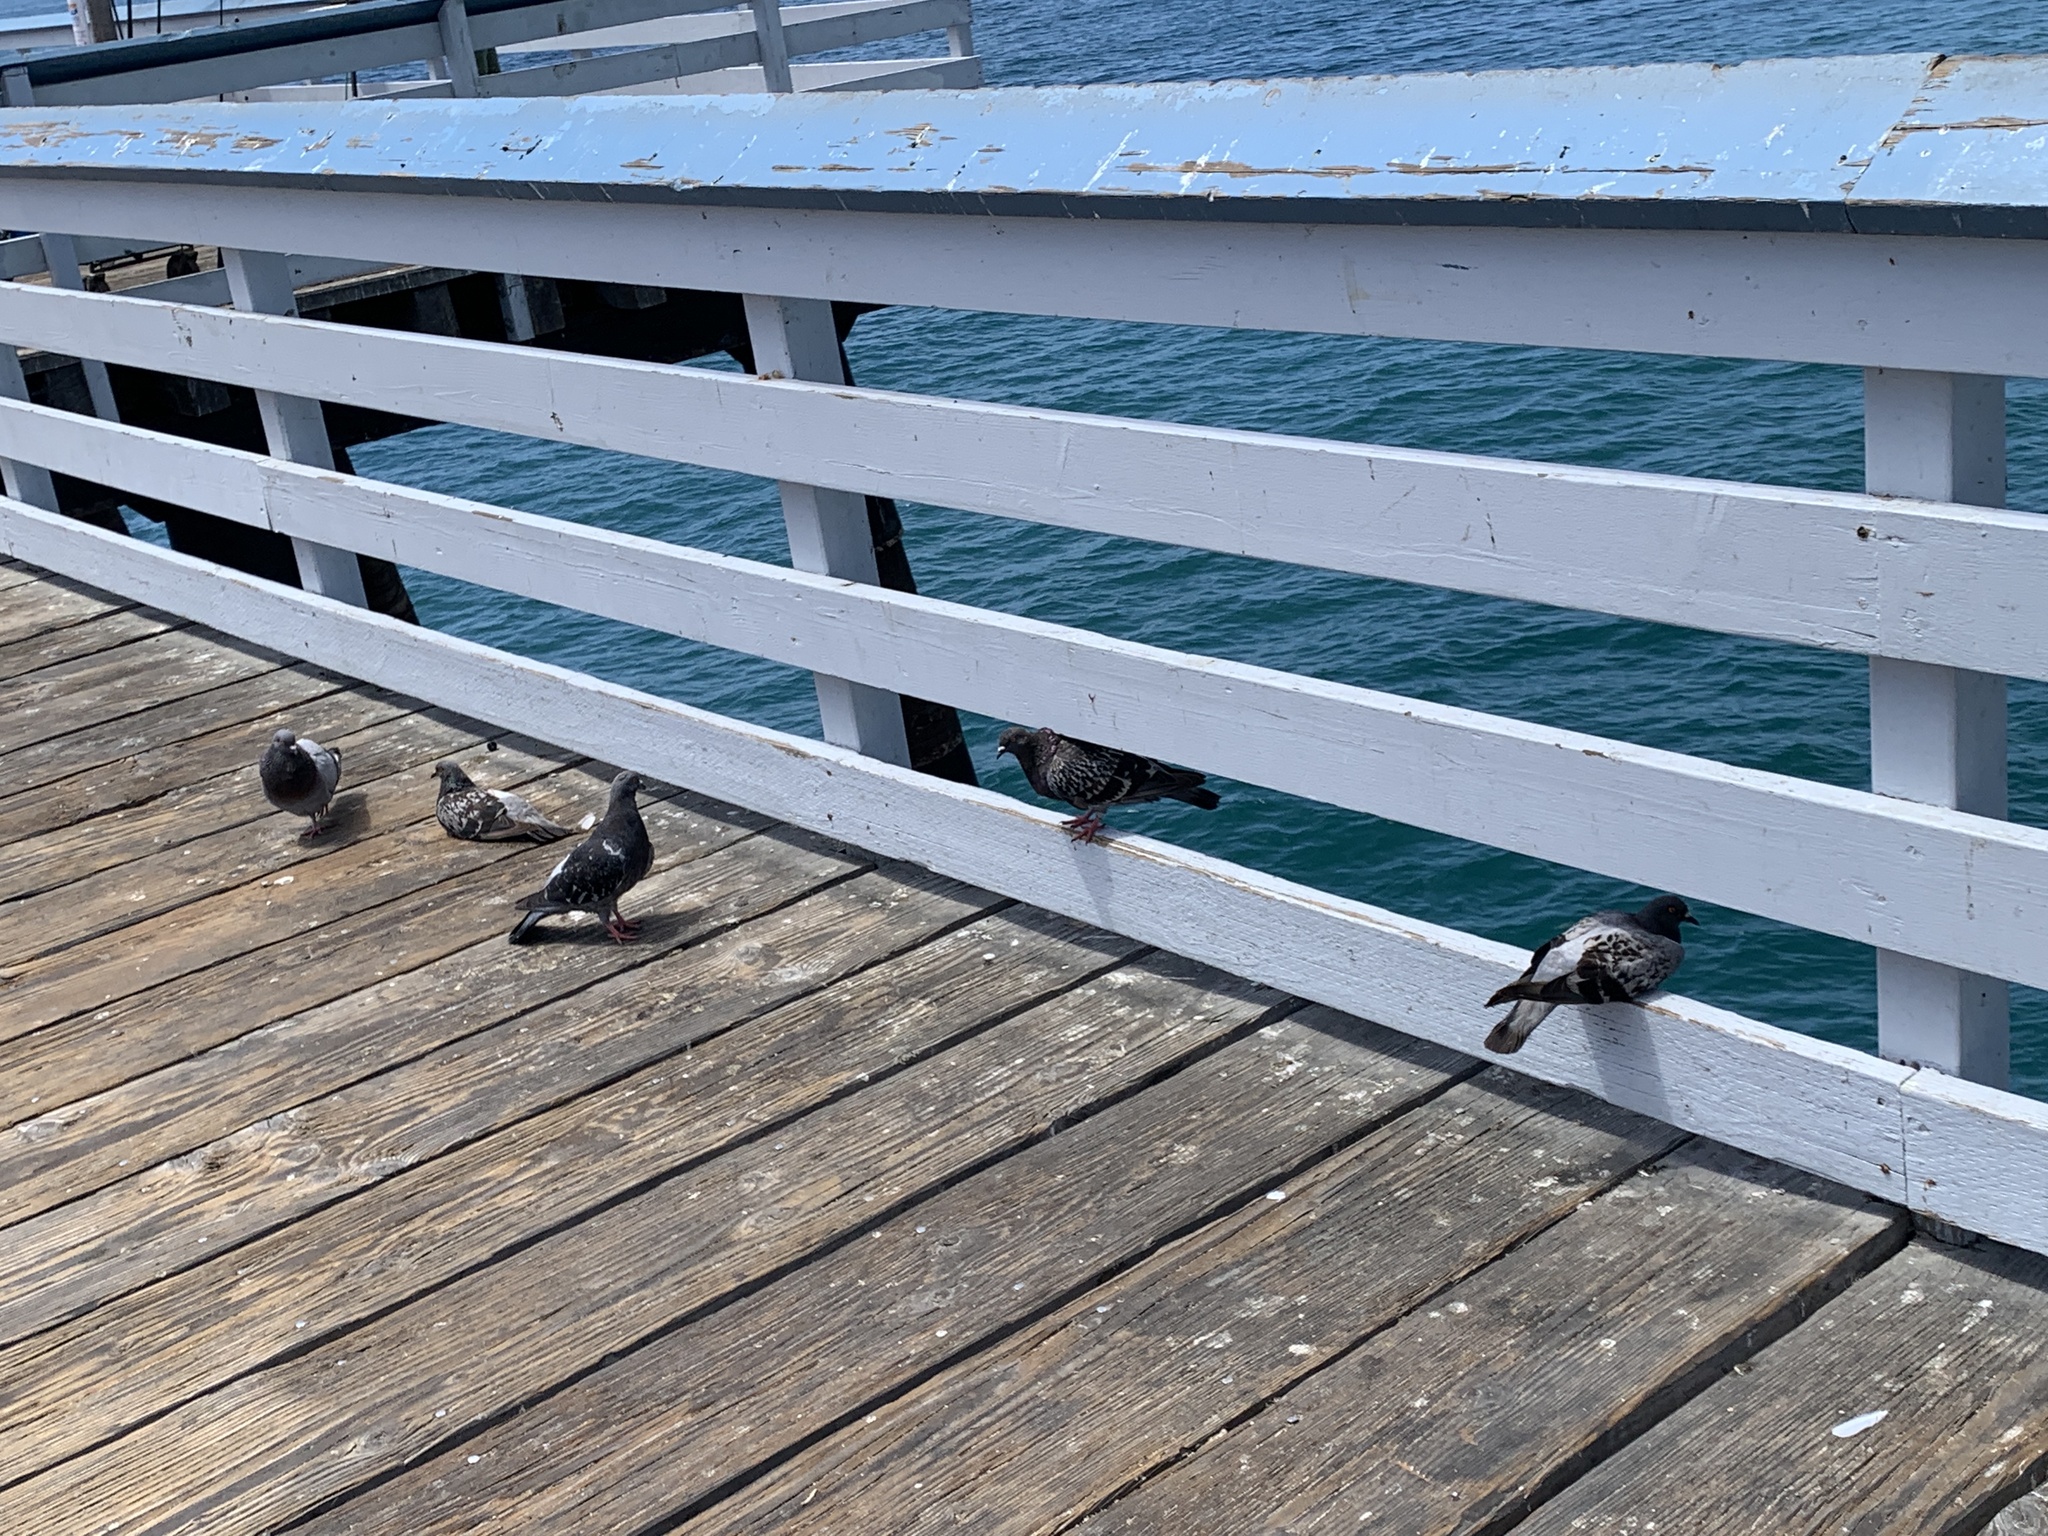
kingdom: Animalia
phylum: Chordata
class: Aves
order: Columbiformes
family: Columbidae
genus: Columba
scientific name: Columba livia
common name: Rock pigeon
